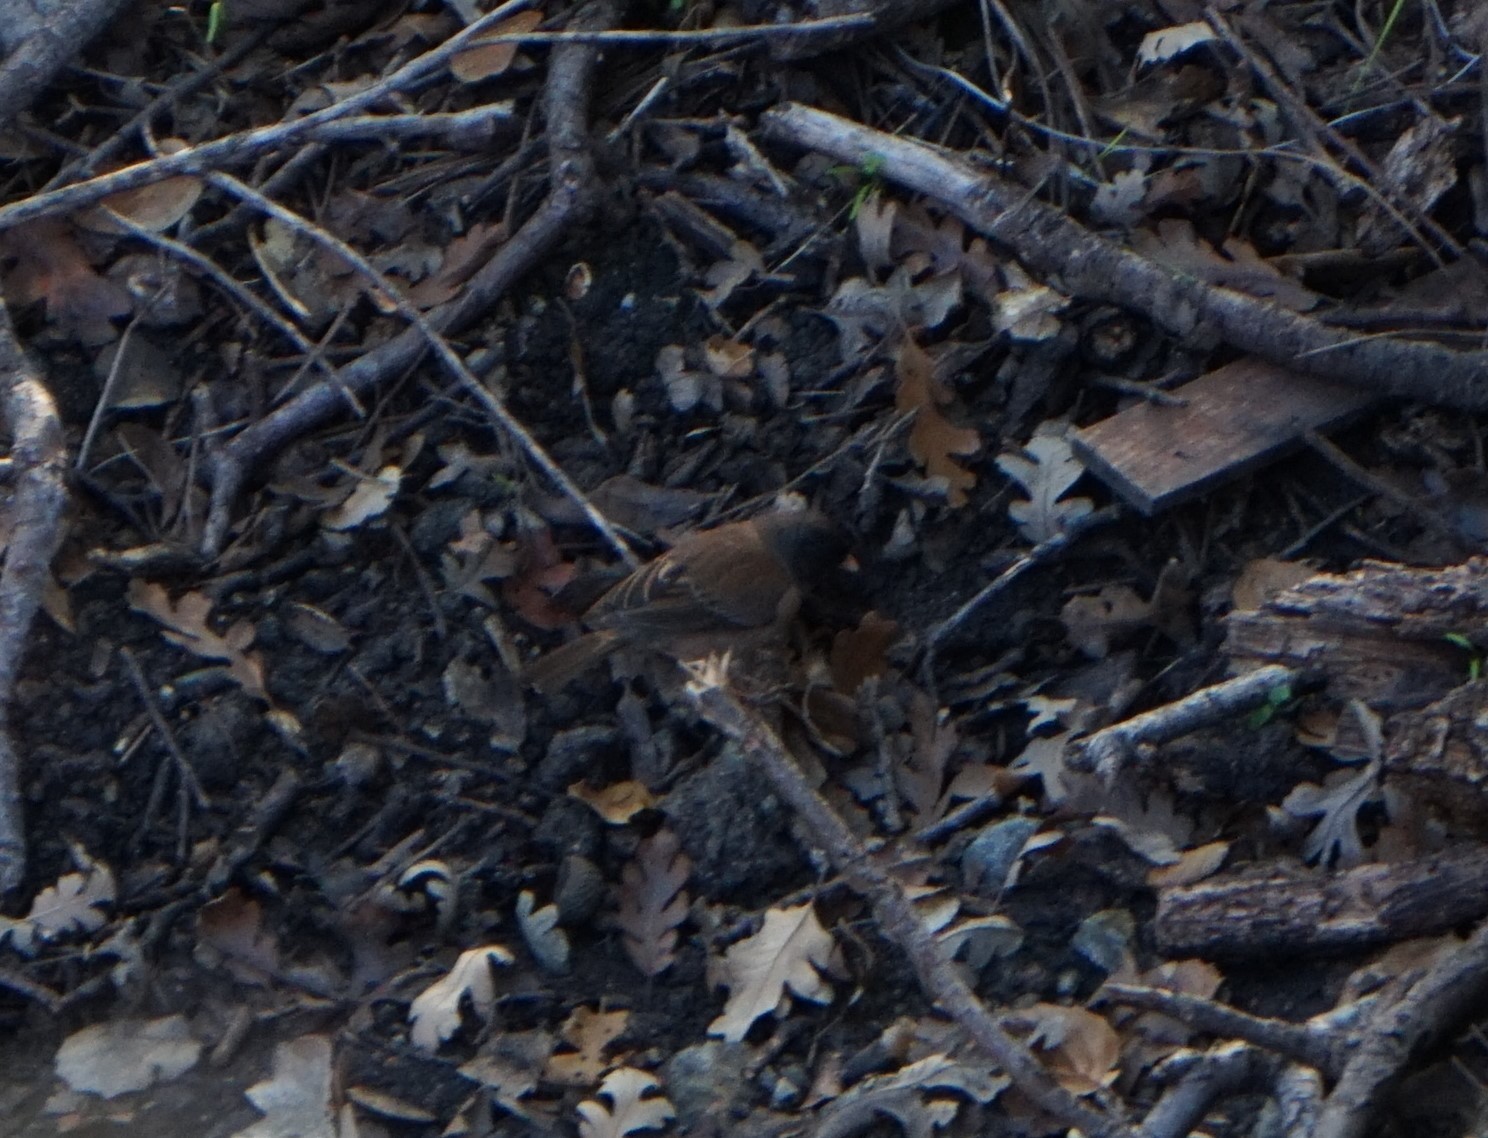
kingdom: Animalia
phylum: Chordata
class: Aves
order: Passeriformes
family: Passerellidae
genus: Junco
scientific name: Junco hyemalis
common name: Dark-eyed junco
